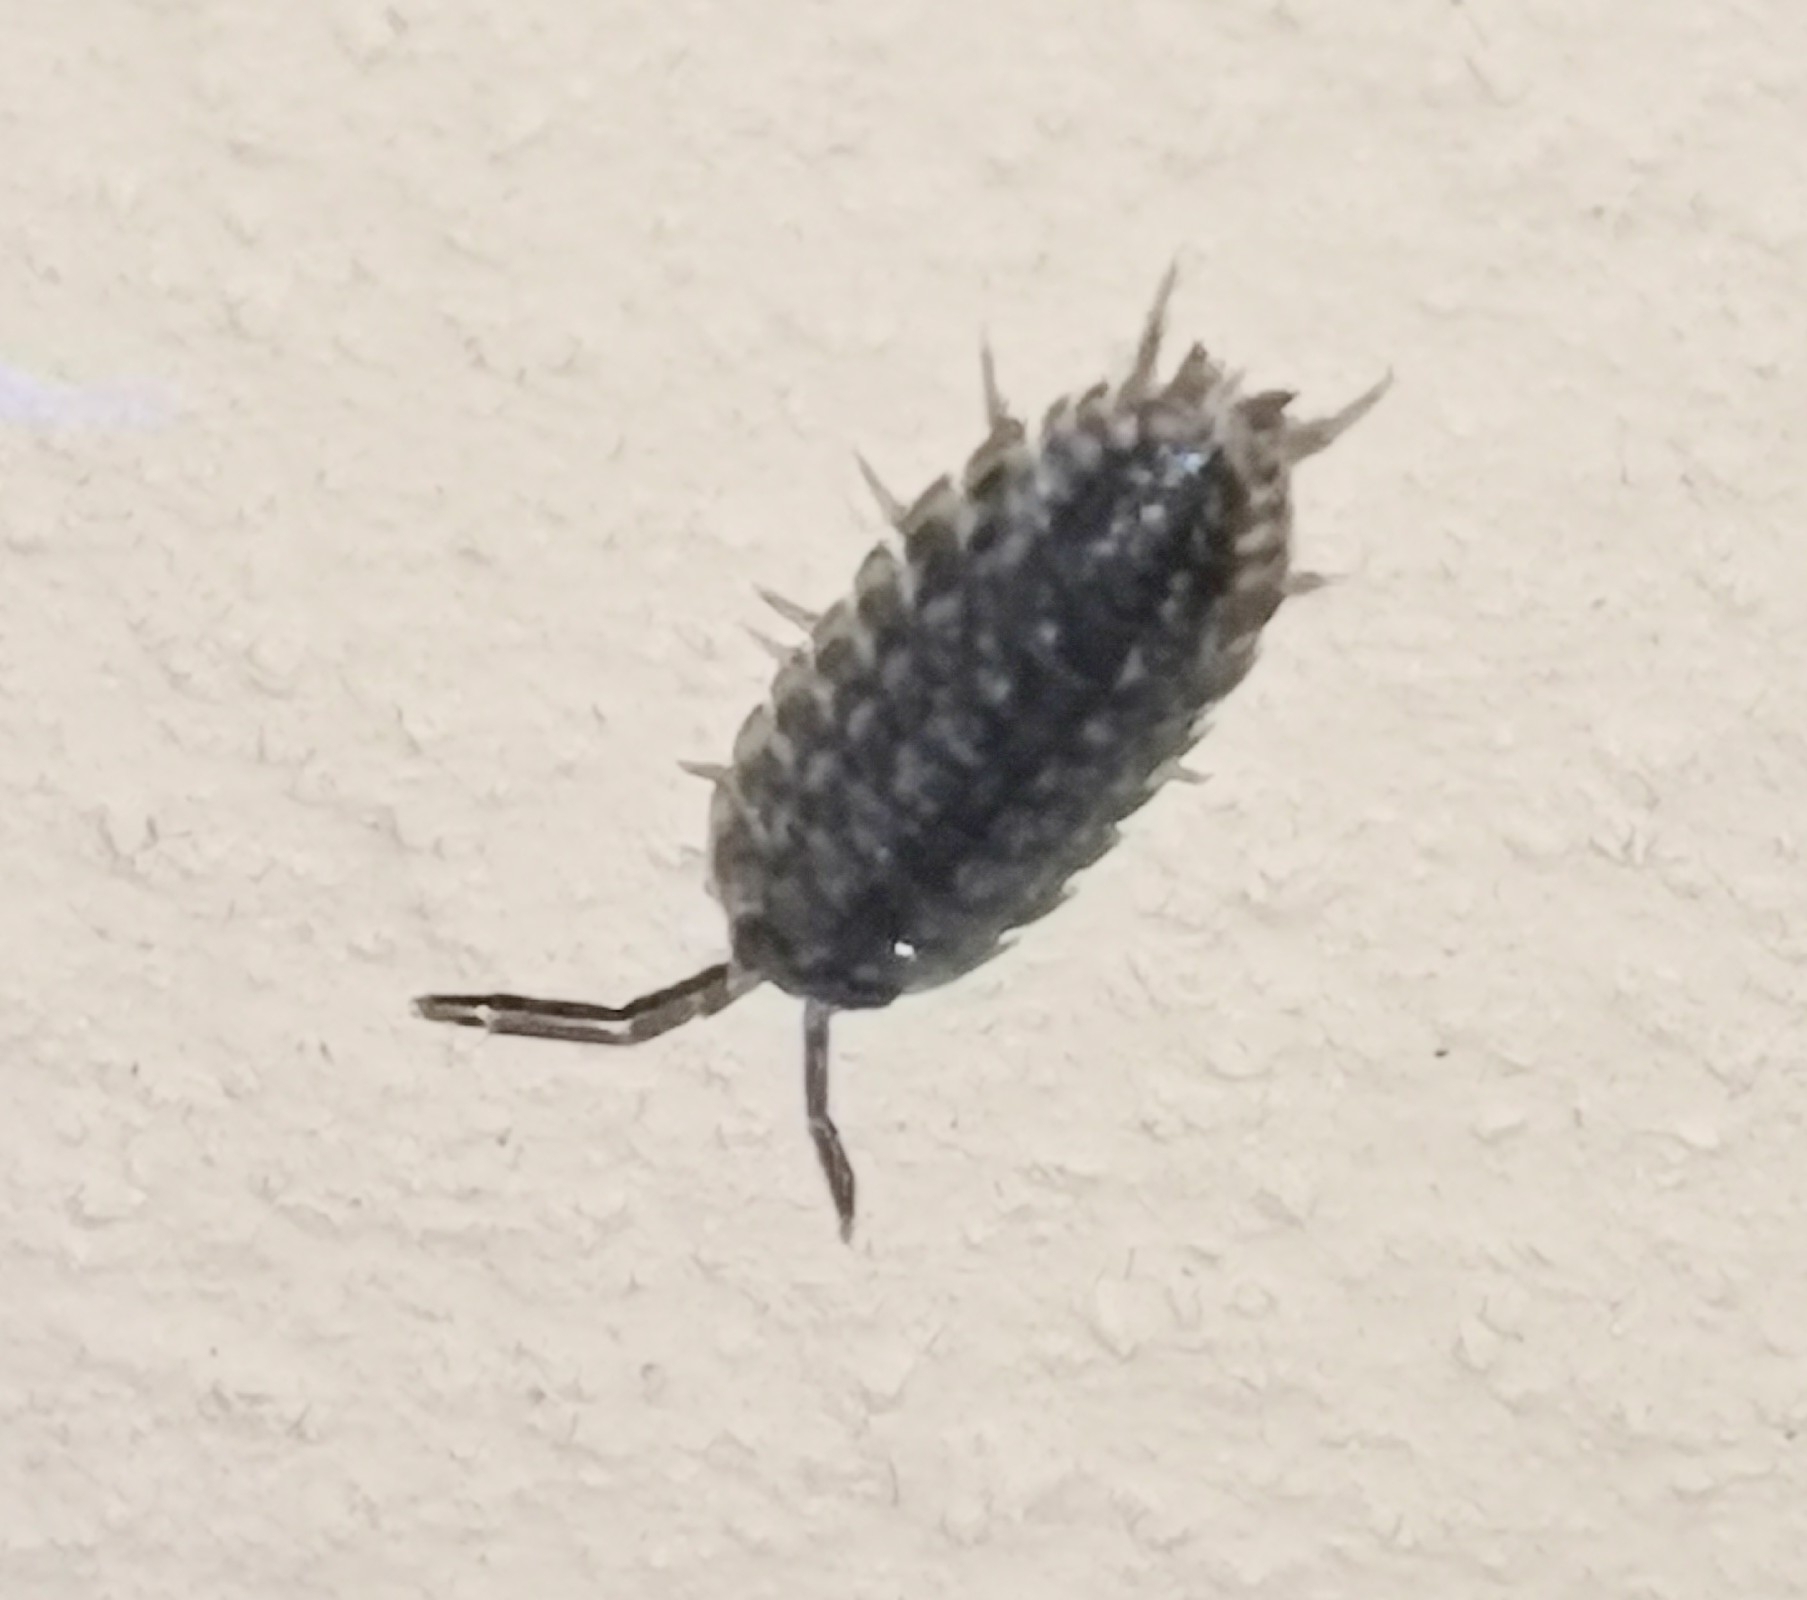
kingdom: Animalia
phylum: Arthropoda
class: Malacostraca
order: Isopoda
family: Porcellionidae
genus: Porcellio
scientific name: Porcellio spinicornis
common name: Painted woodlouse
